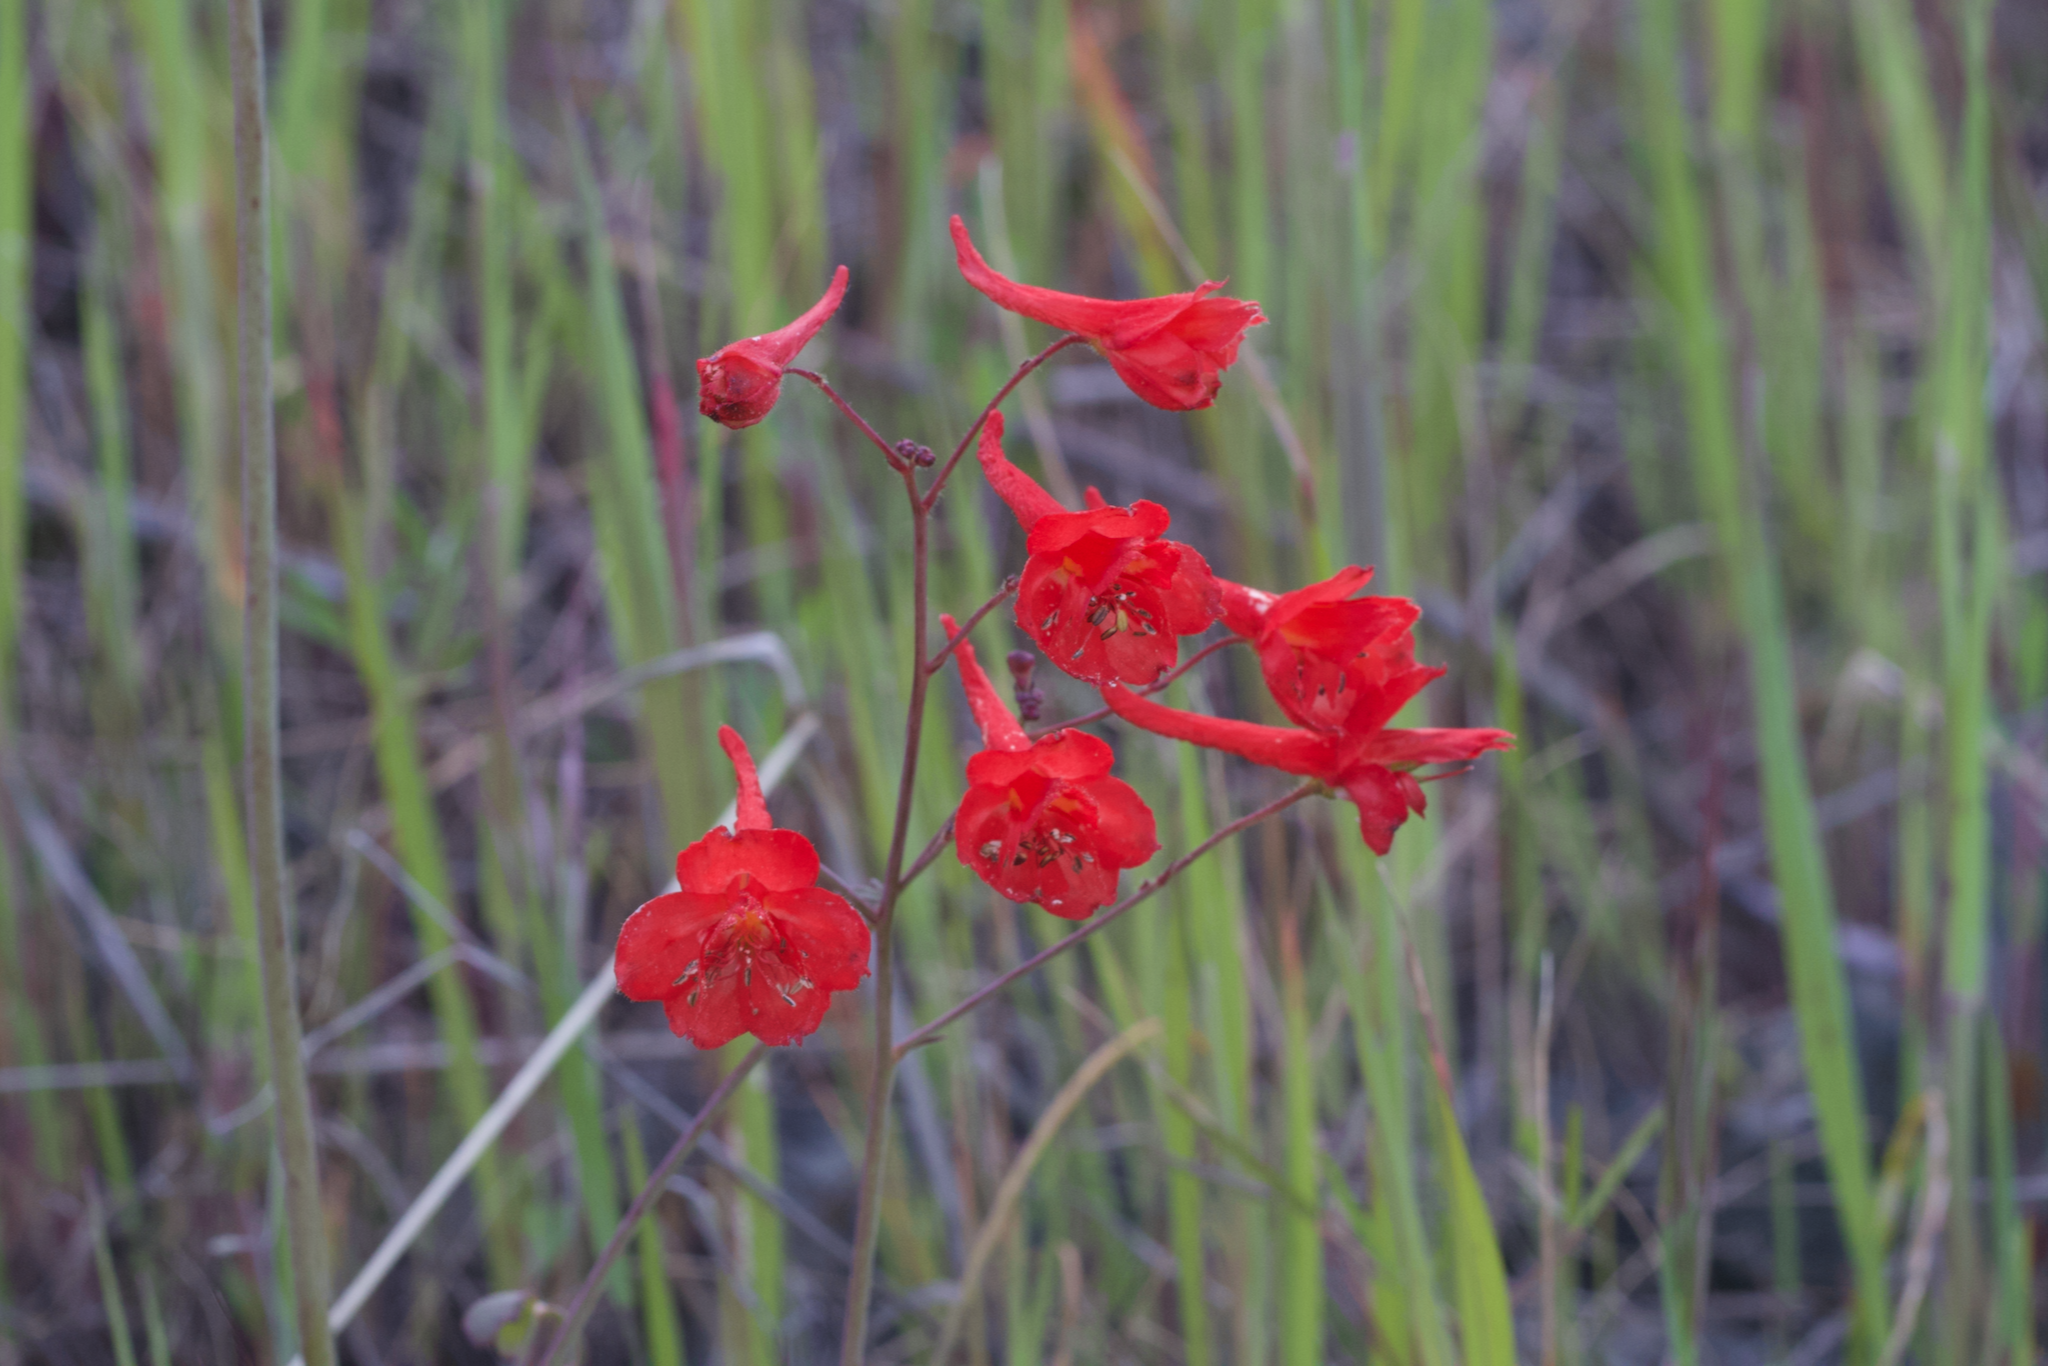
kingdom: Plantae
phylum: Tracheophyta
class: Magnoliopsida
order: Ranunculales
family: Ranunculaceae
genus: Delphinium
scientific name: Delphinium nudicaule
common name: Red larkspur
